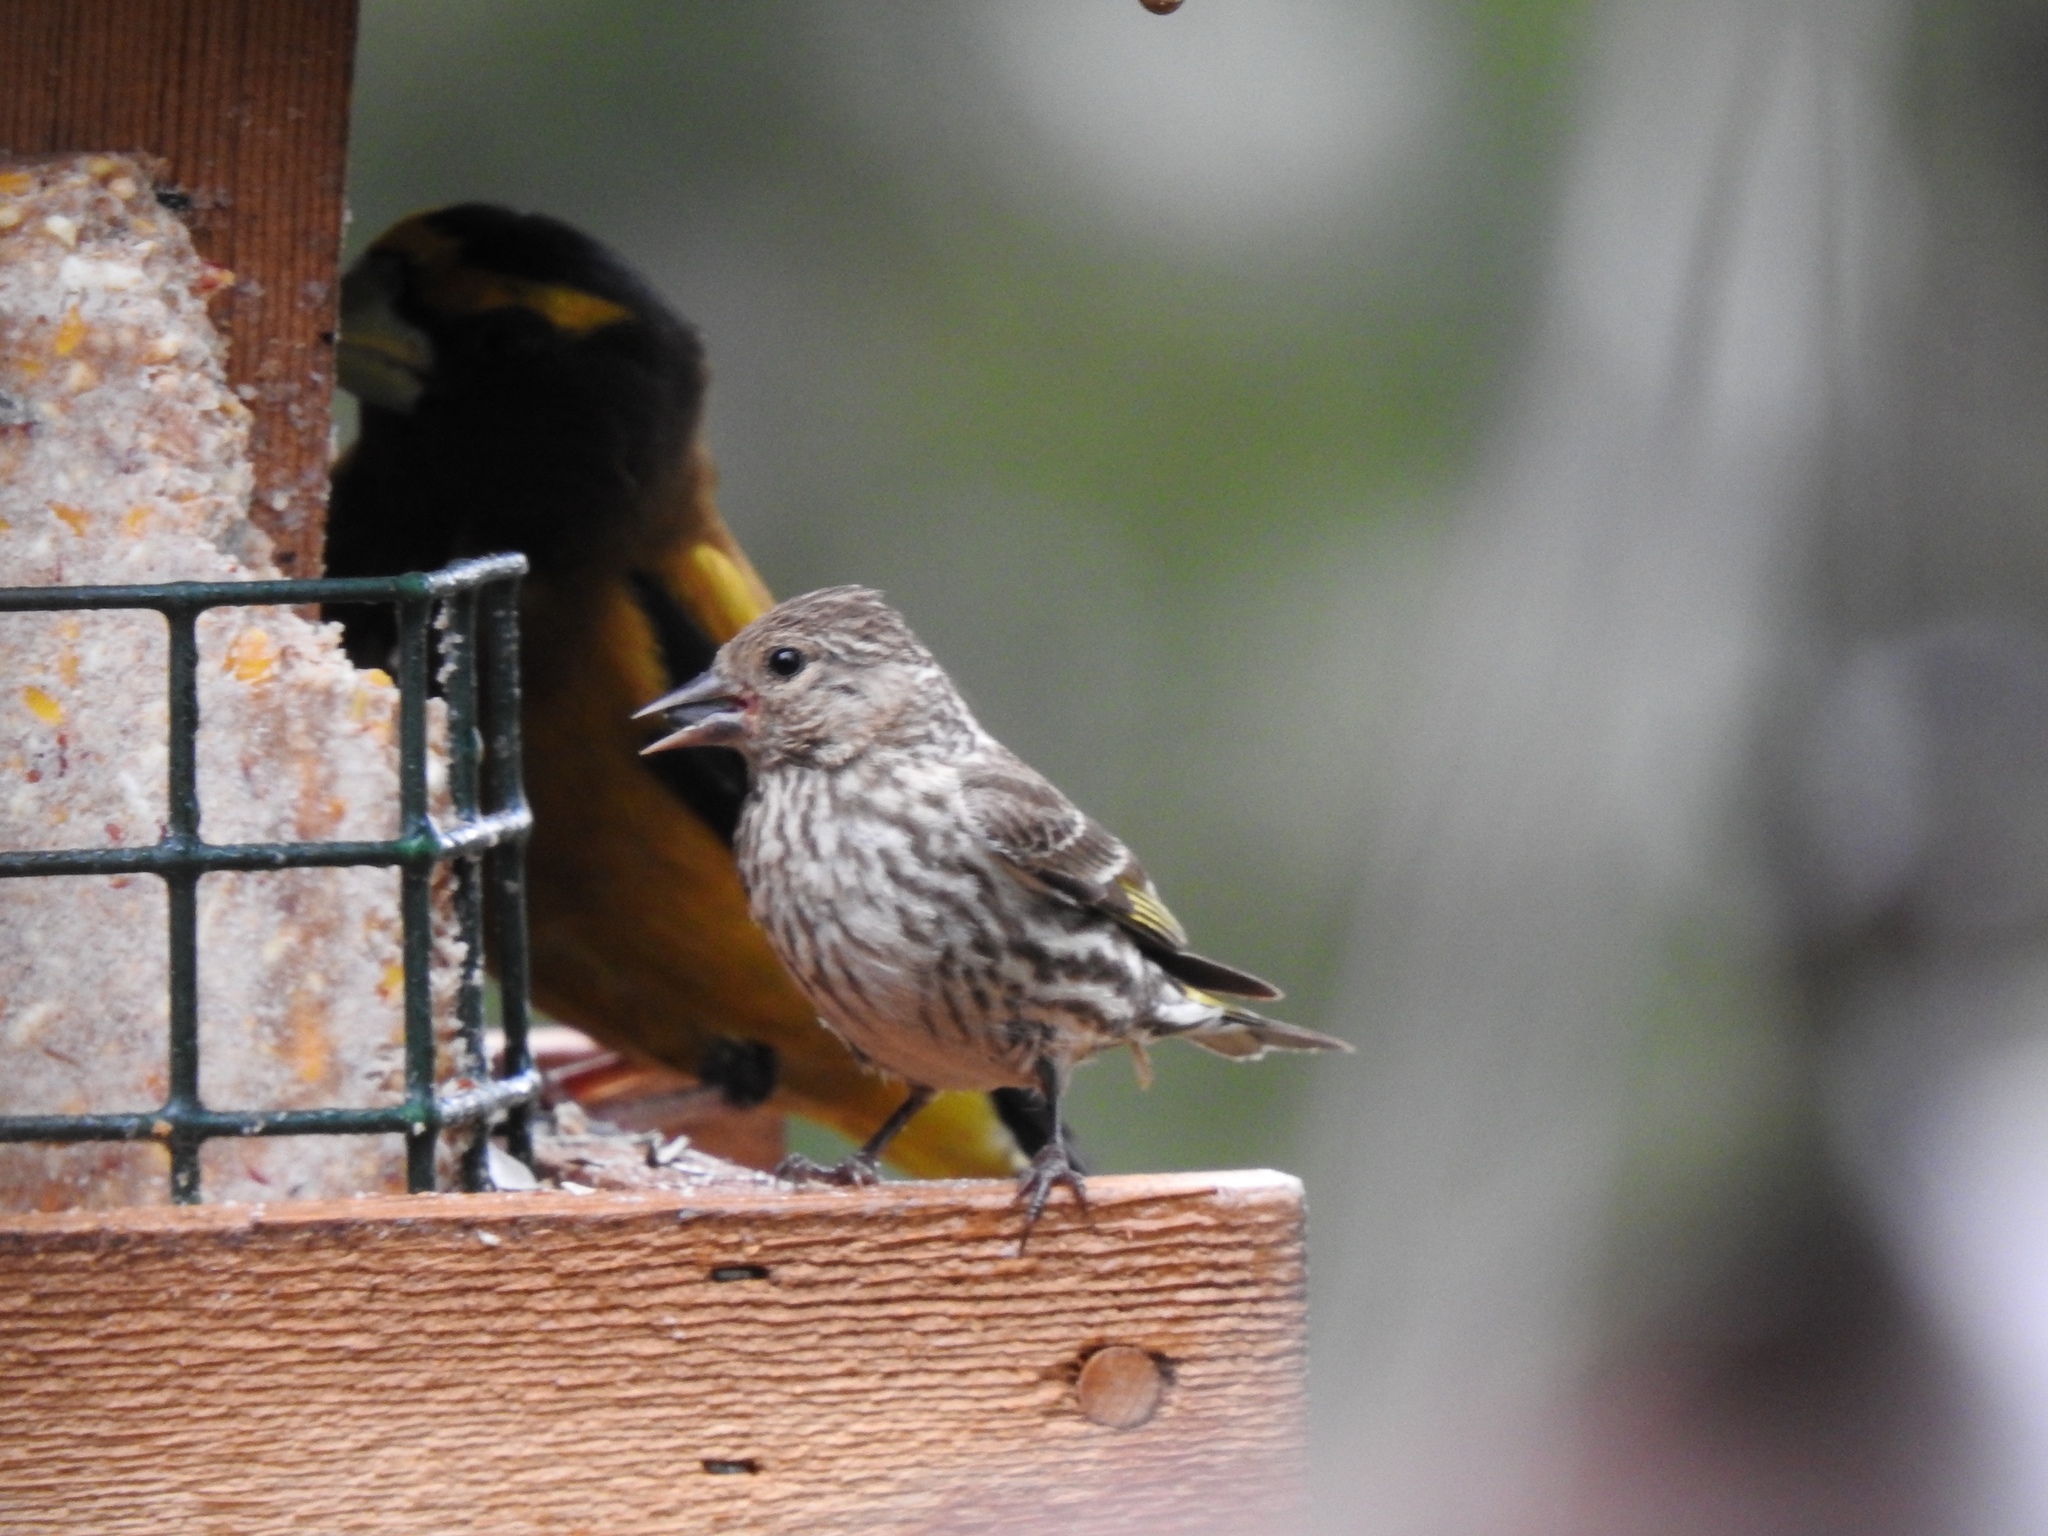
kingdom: Animalia
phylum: Chordata
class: Aves
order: Passeriformes
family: Fringillidae
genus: Hesperiphona
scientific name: Hesperiphona vespertina
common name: Evening grosbeak
